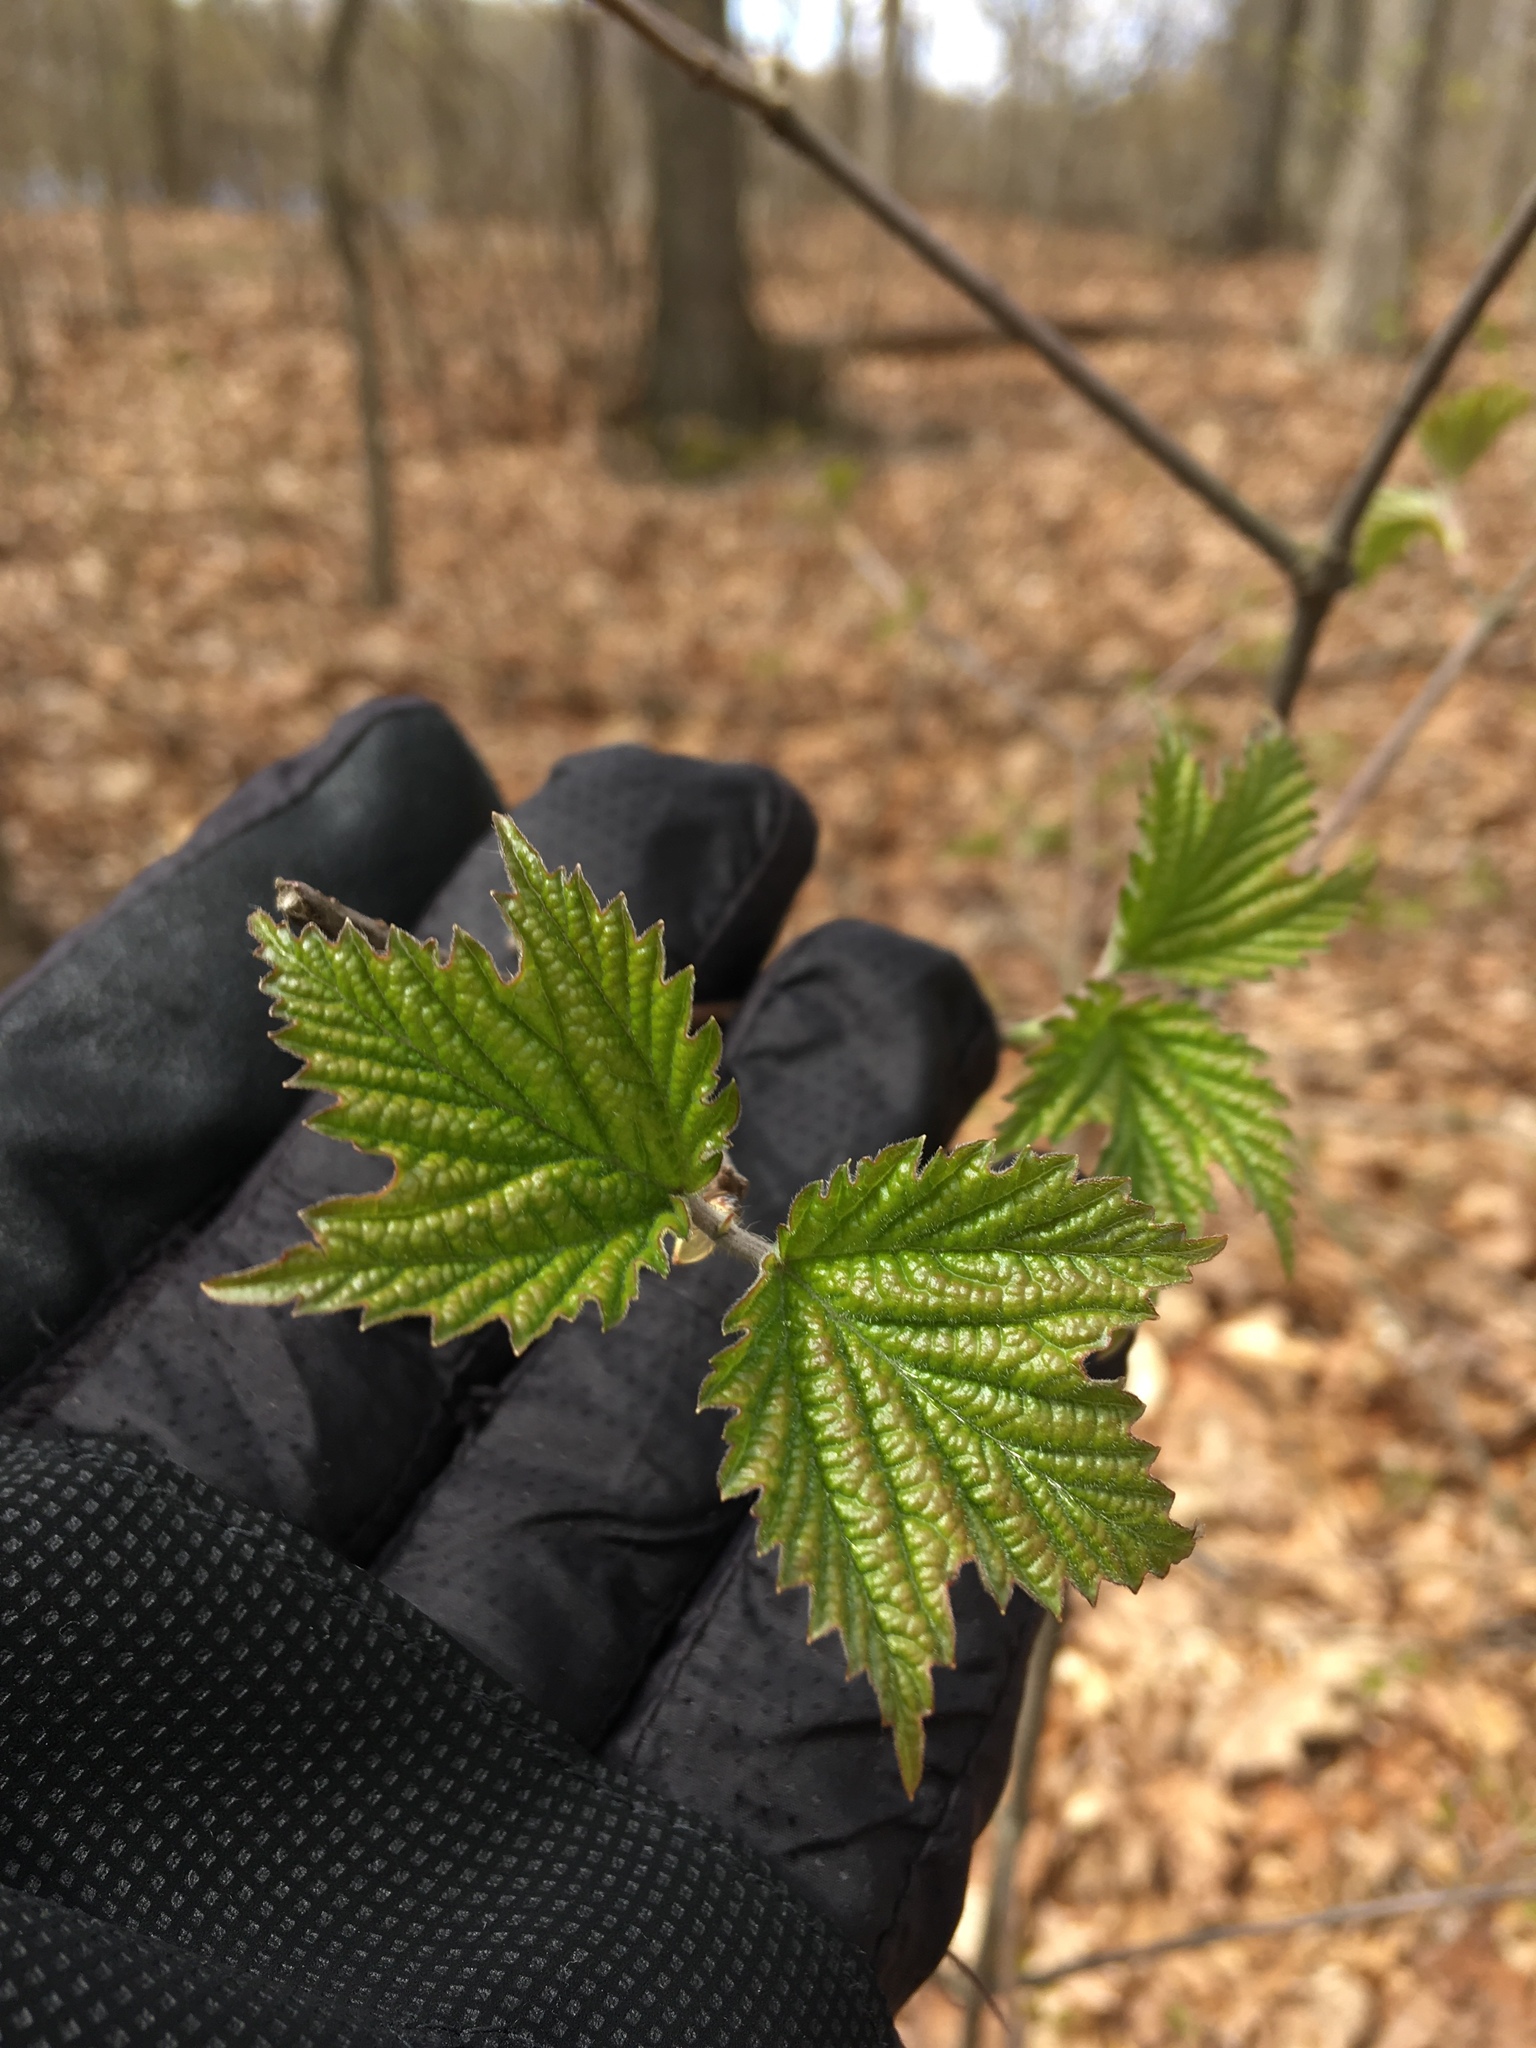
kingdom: Plantae
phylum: Tracheophyta
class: Magnoliopsida
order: Dipsacales
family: Viburnaceae
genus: Viburnum
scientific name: Viburnum acerifolium
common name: Dockmackie
